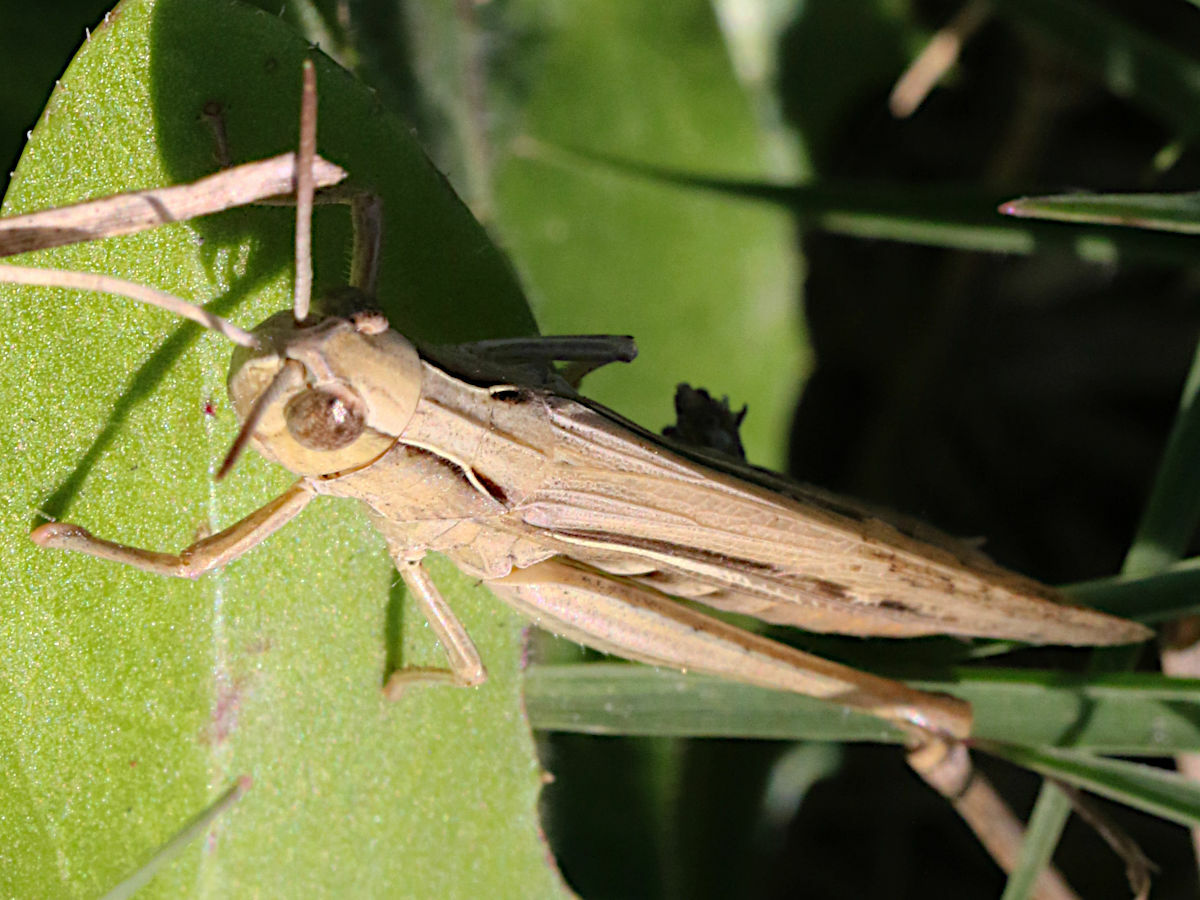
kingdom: Animalia
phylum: Arthropoda
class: Insecta
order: Orthoptera
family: Acrididae
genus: Chorthippus
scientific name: Chorthippus loratus
